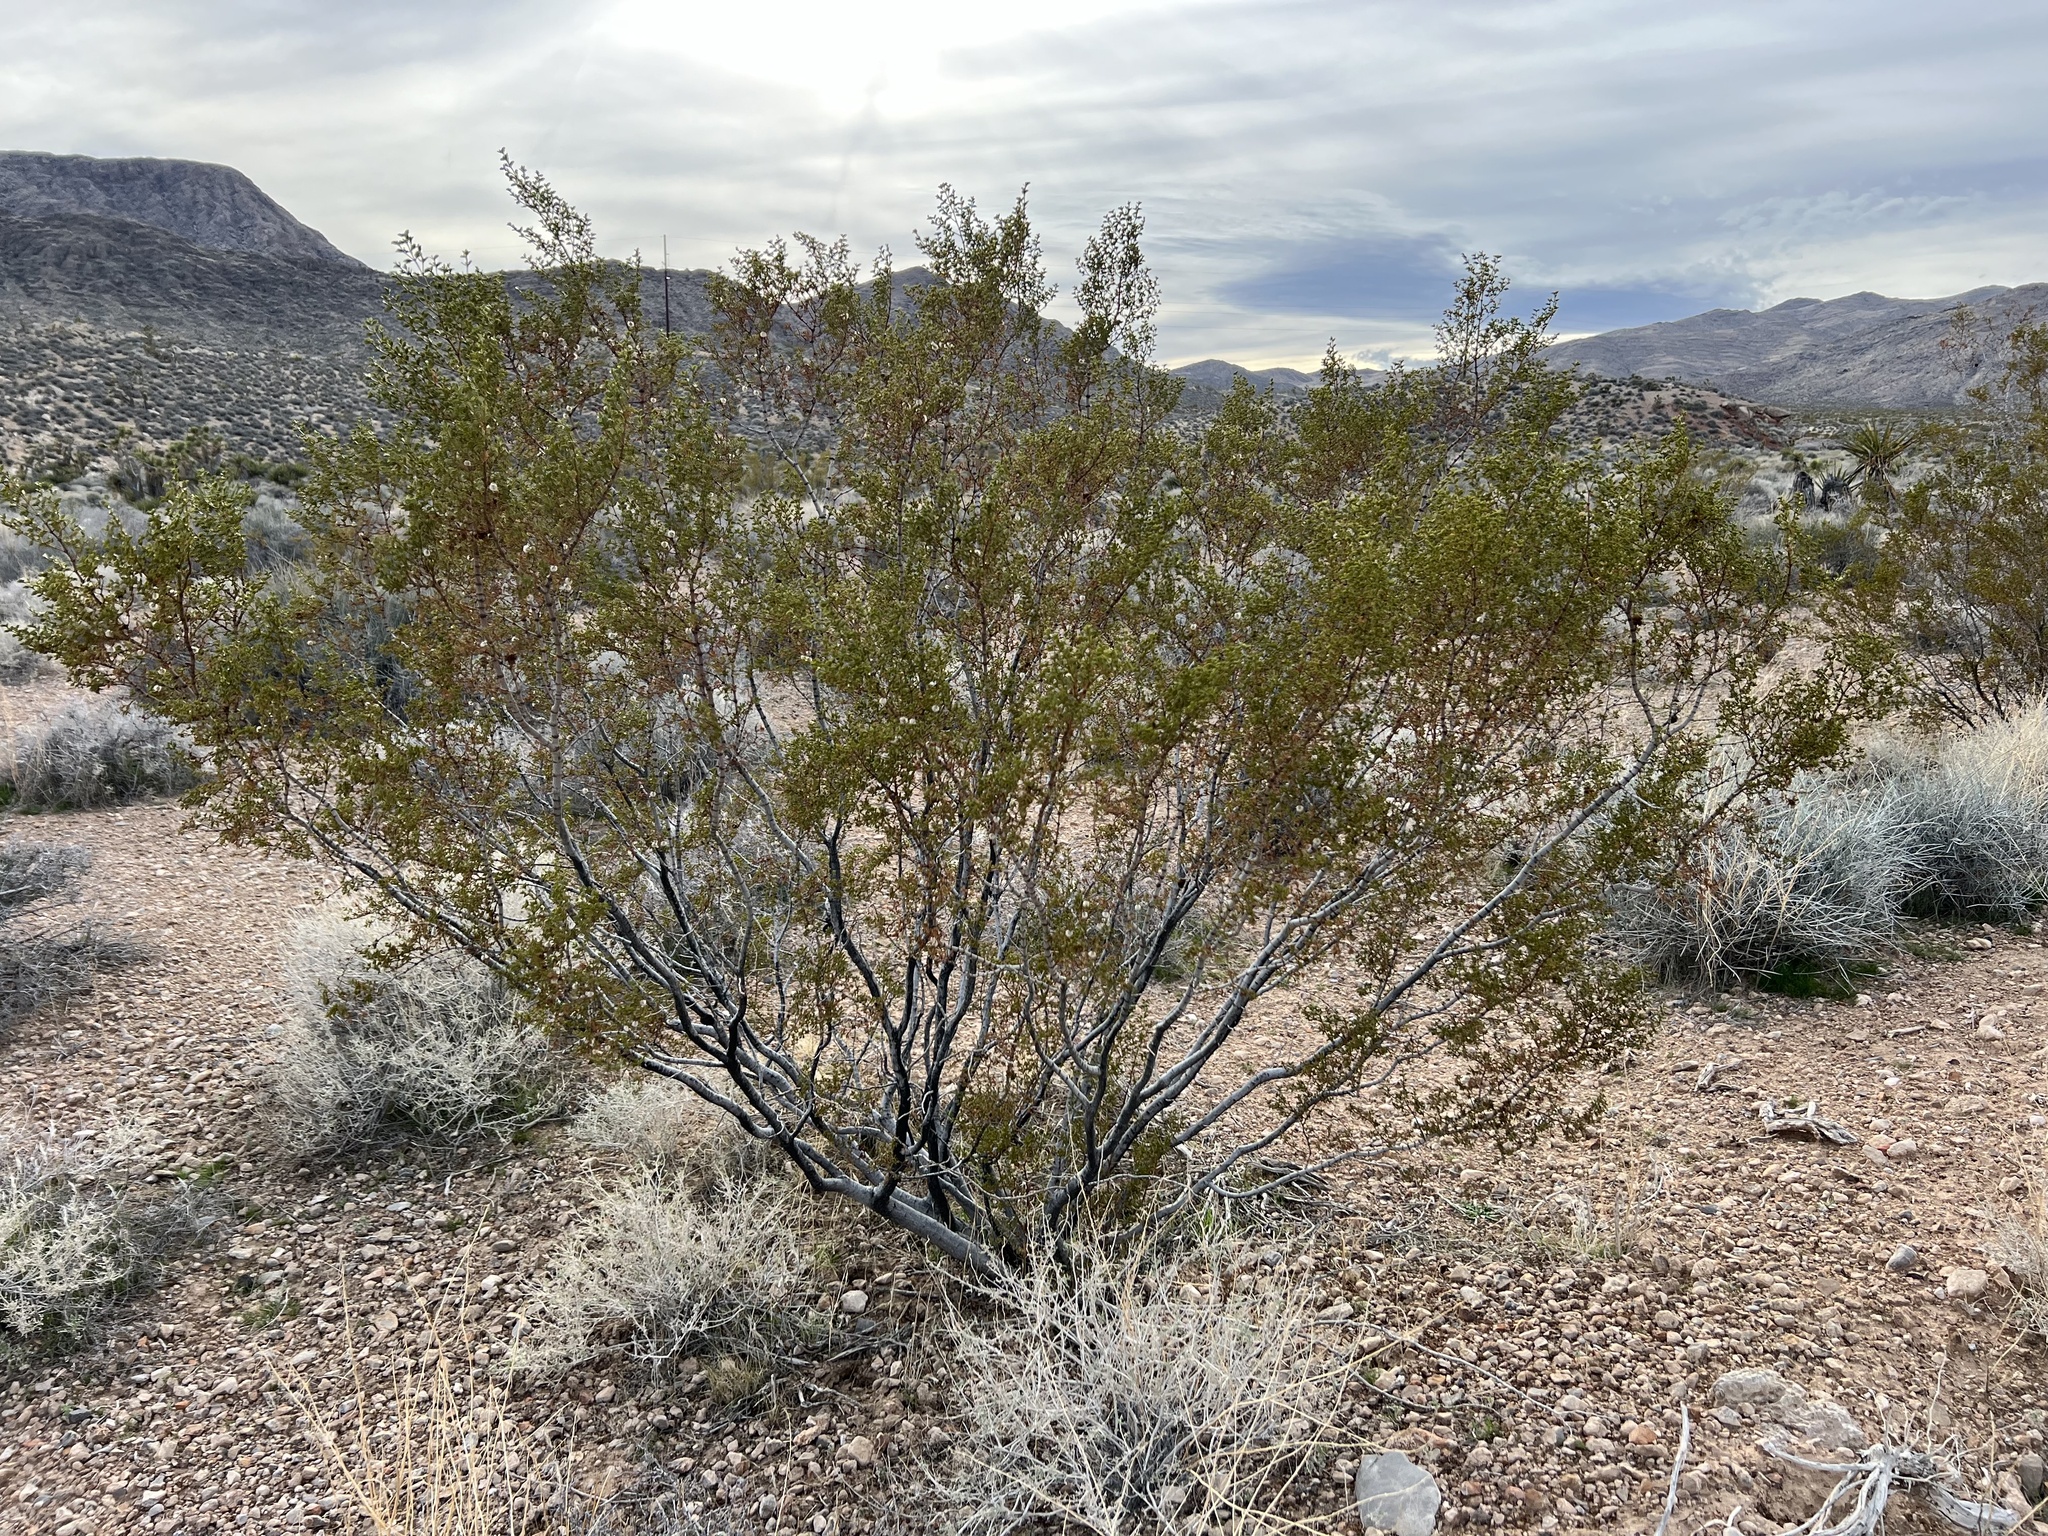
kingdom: Plantae
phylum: Tracheophyta
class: Magnoliopsida
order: Zygophyllales
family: Zygophyllaceae
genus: Larrea
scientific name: Larrea tridentata
